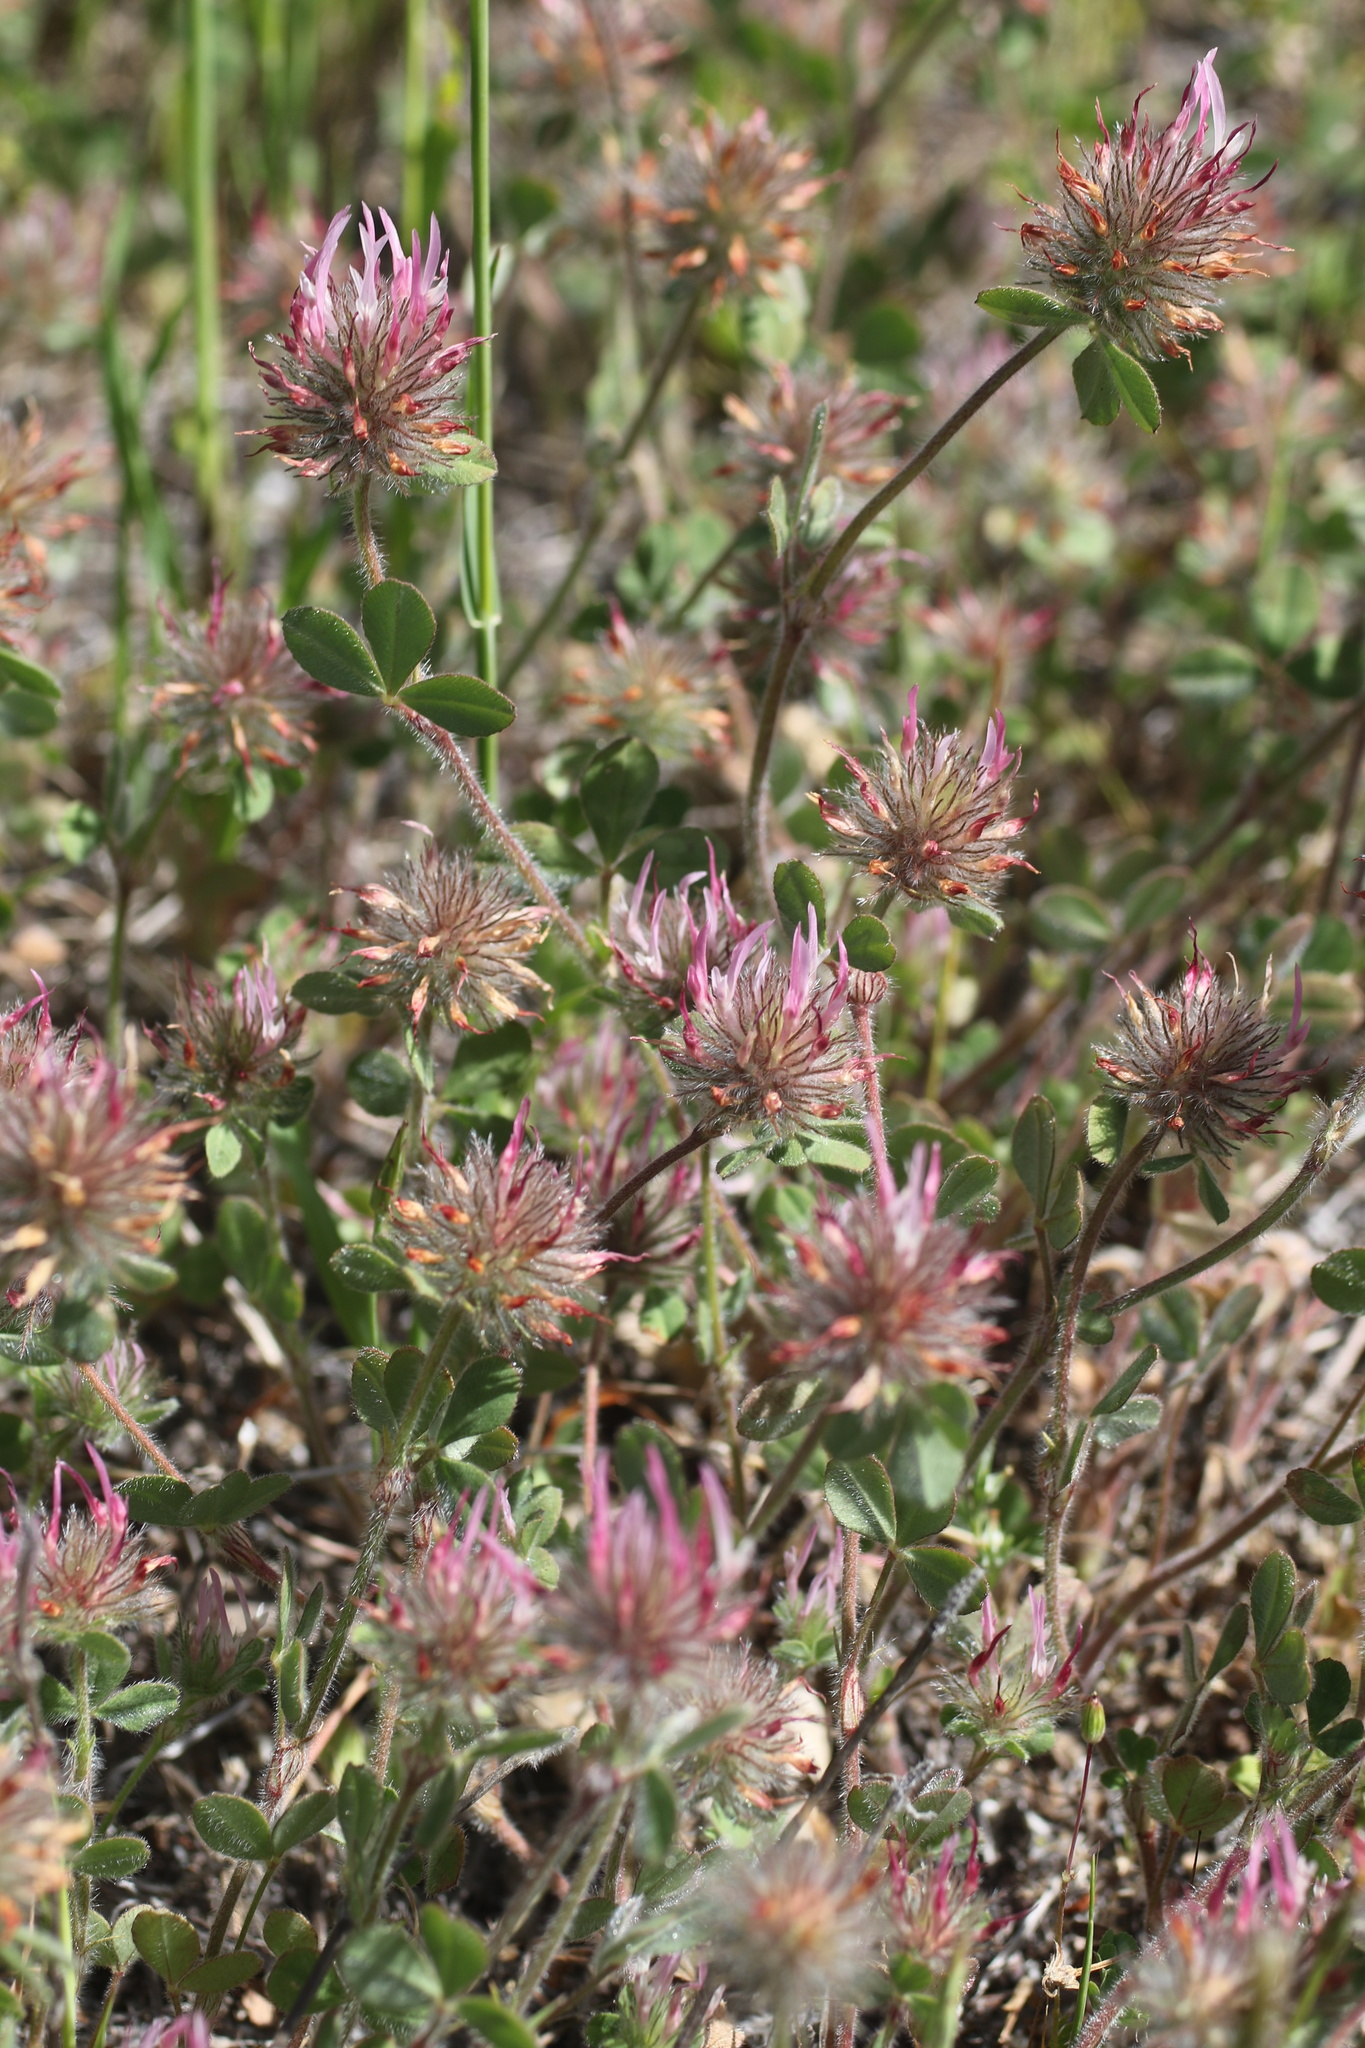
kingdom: Plantae
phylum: Tracheophyta
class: Magnoliopsida
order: Fabales
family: Fabaceae
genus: Trifolium
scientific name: Trifolium hirtum
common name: Rose clover
